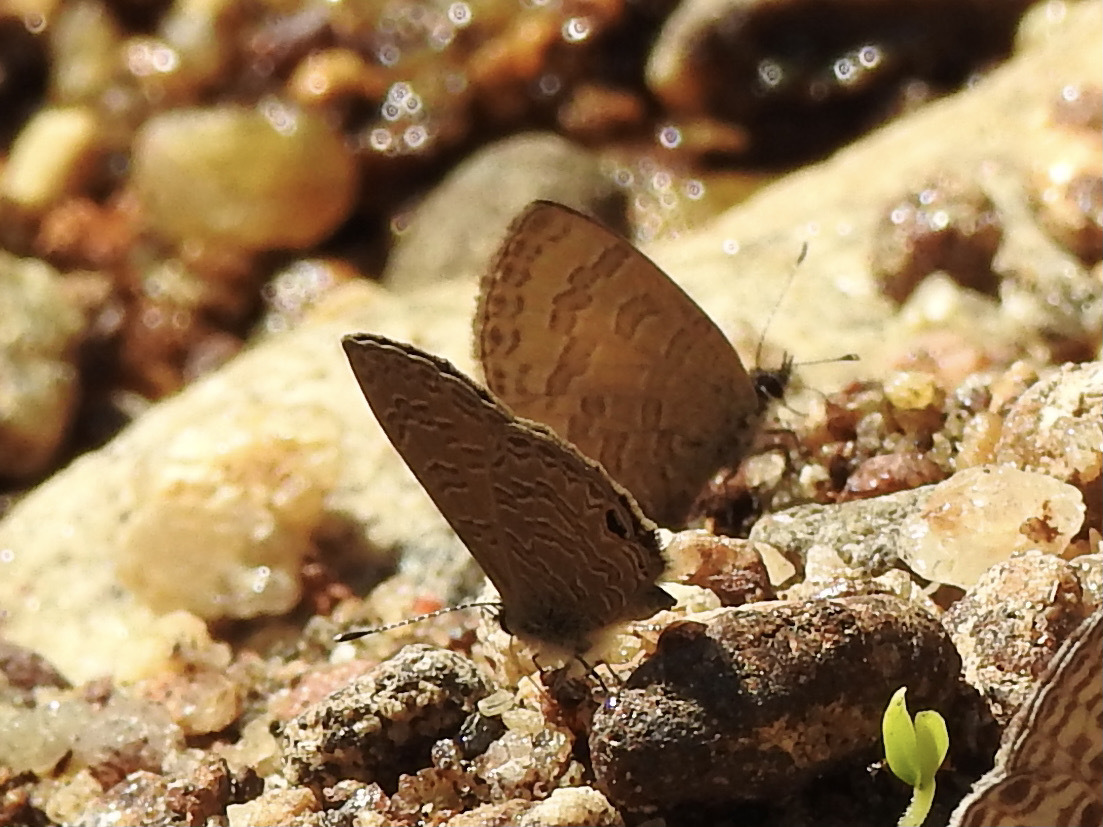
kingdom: Animalia
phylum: Arthropoda
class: Insecta
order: Lepidoptera
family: Lycaenidae
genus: Prosotas
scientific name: Prosotas dubiosa
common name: Tailless lineblue
